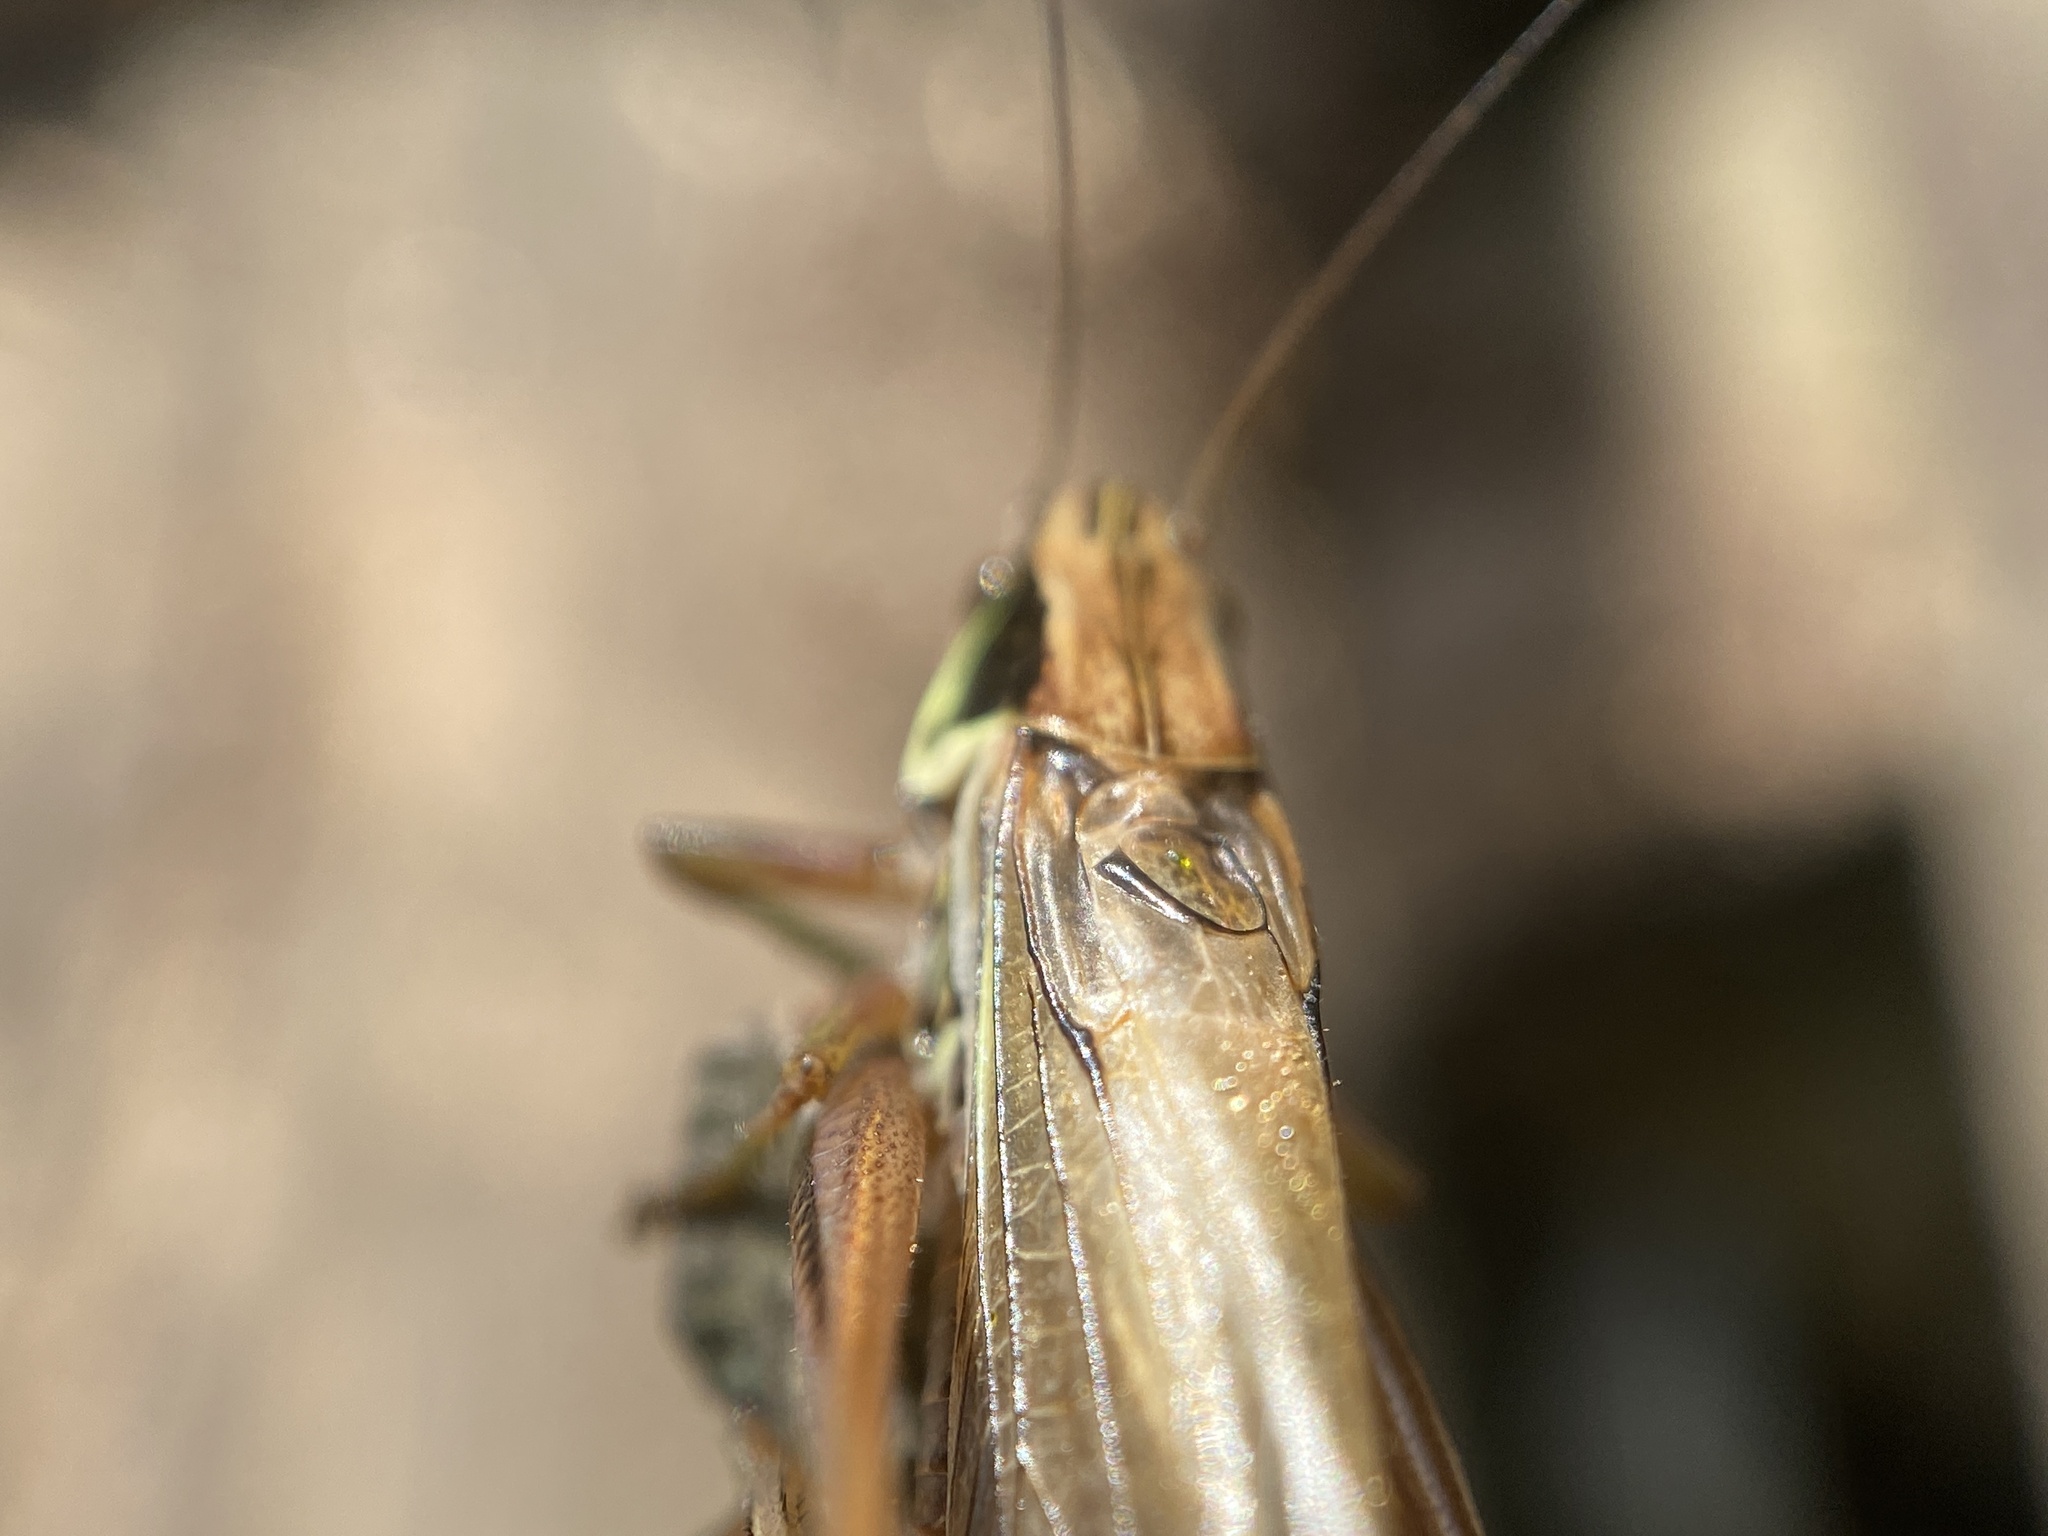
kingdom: Animalia
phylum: Arthropoda
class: Insecta
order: Orthoptera
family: Tettigoniidae
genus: Roeseliana
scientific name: Roeseliana roeselii
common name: Roesel's bush cricket
